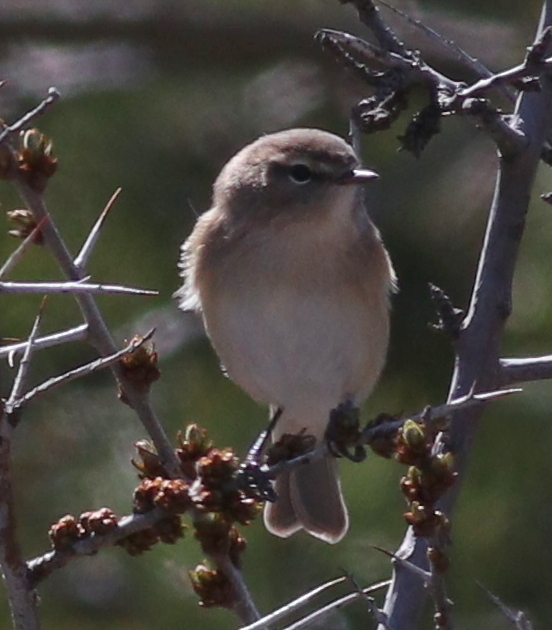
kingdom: Animalia
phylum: Chordata
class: Aves
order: Passeriformes
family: Phylloscopidae
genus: Phylloscopus
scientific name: Phylloscopus sindianus
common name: Mountain chiffchaff
